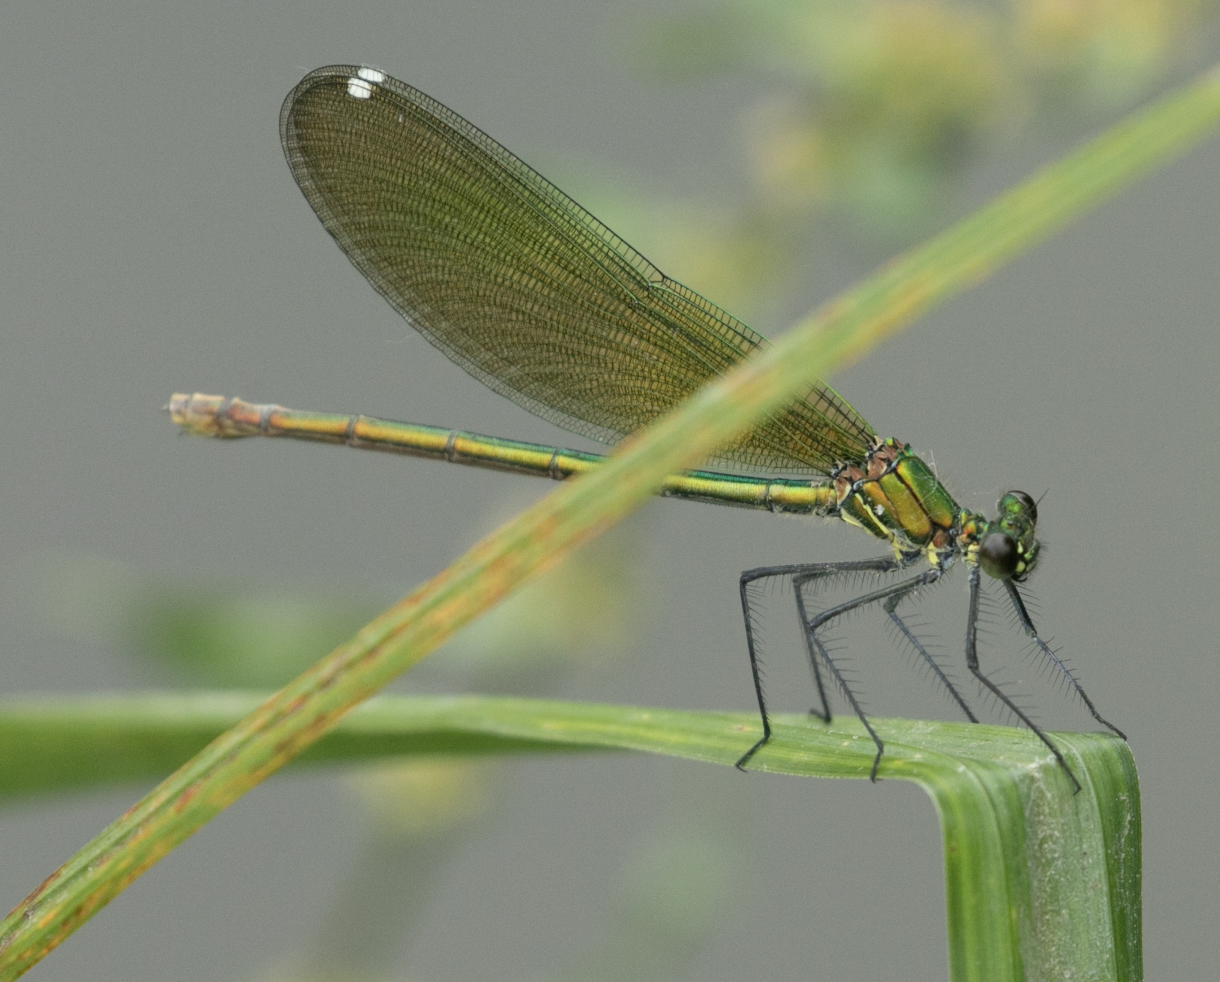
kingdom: Animalia
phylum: Arthropoda
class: Insecta
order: Odonata
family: Calopterygidae
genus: Calopteryx
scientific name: Calopteryx splendens
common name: Banded demoiselle
